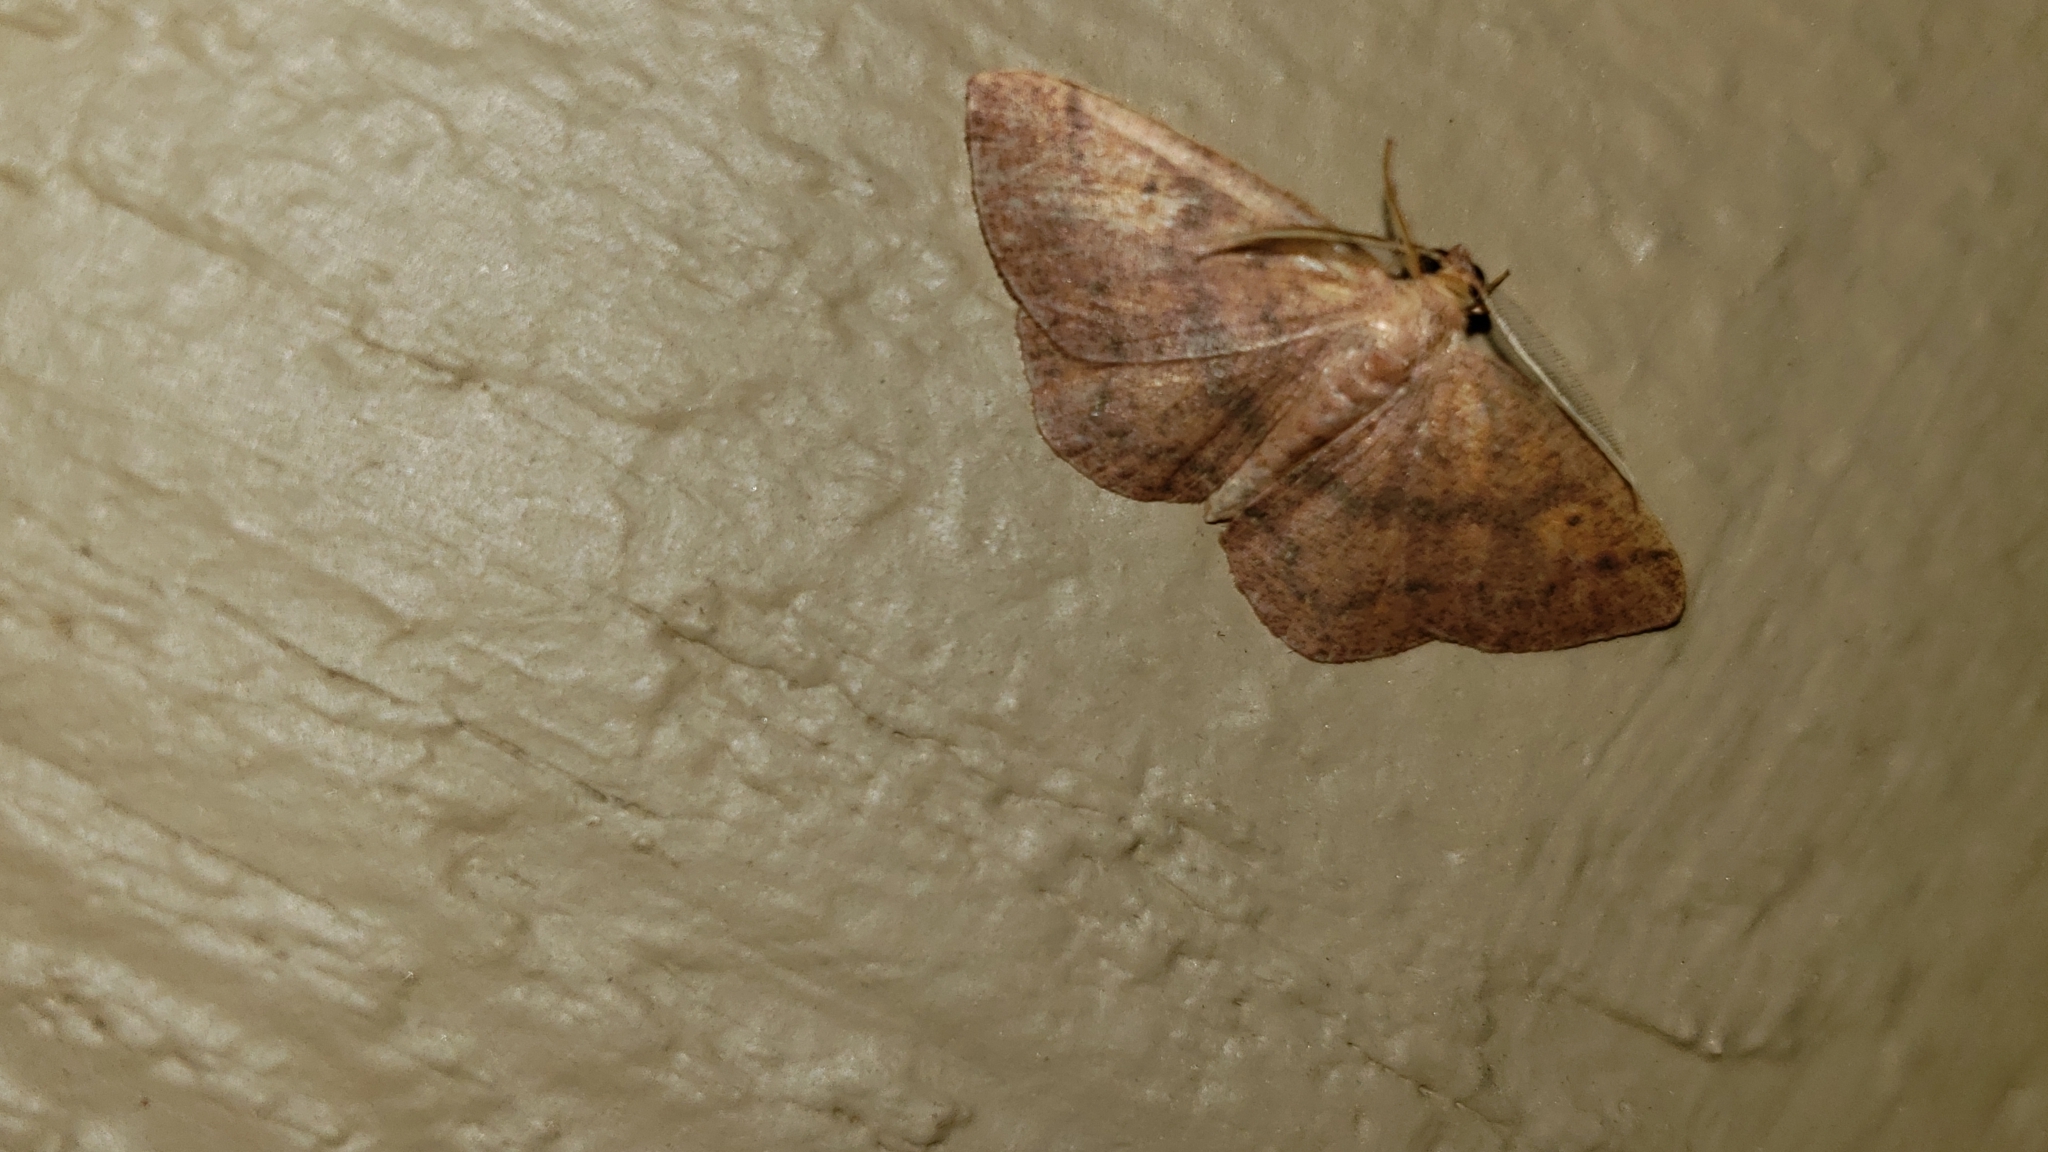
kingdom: Animalia
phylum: Arthropoda
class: Insecta
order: Lepidoptera
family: Geometridae
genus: Ilexia
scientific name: Ilexia intractata
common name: Black-dotted ruddy moth
